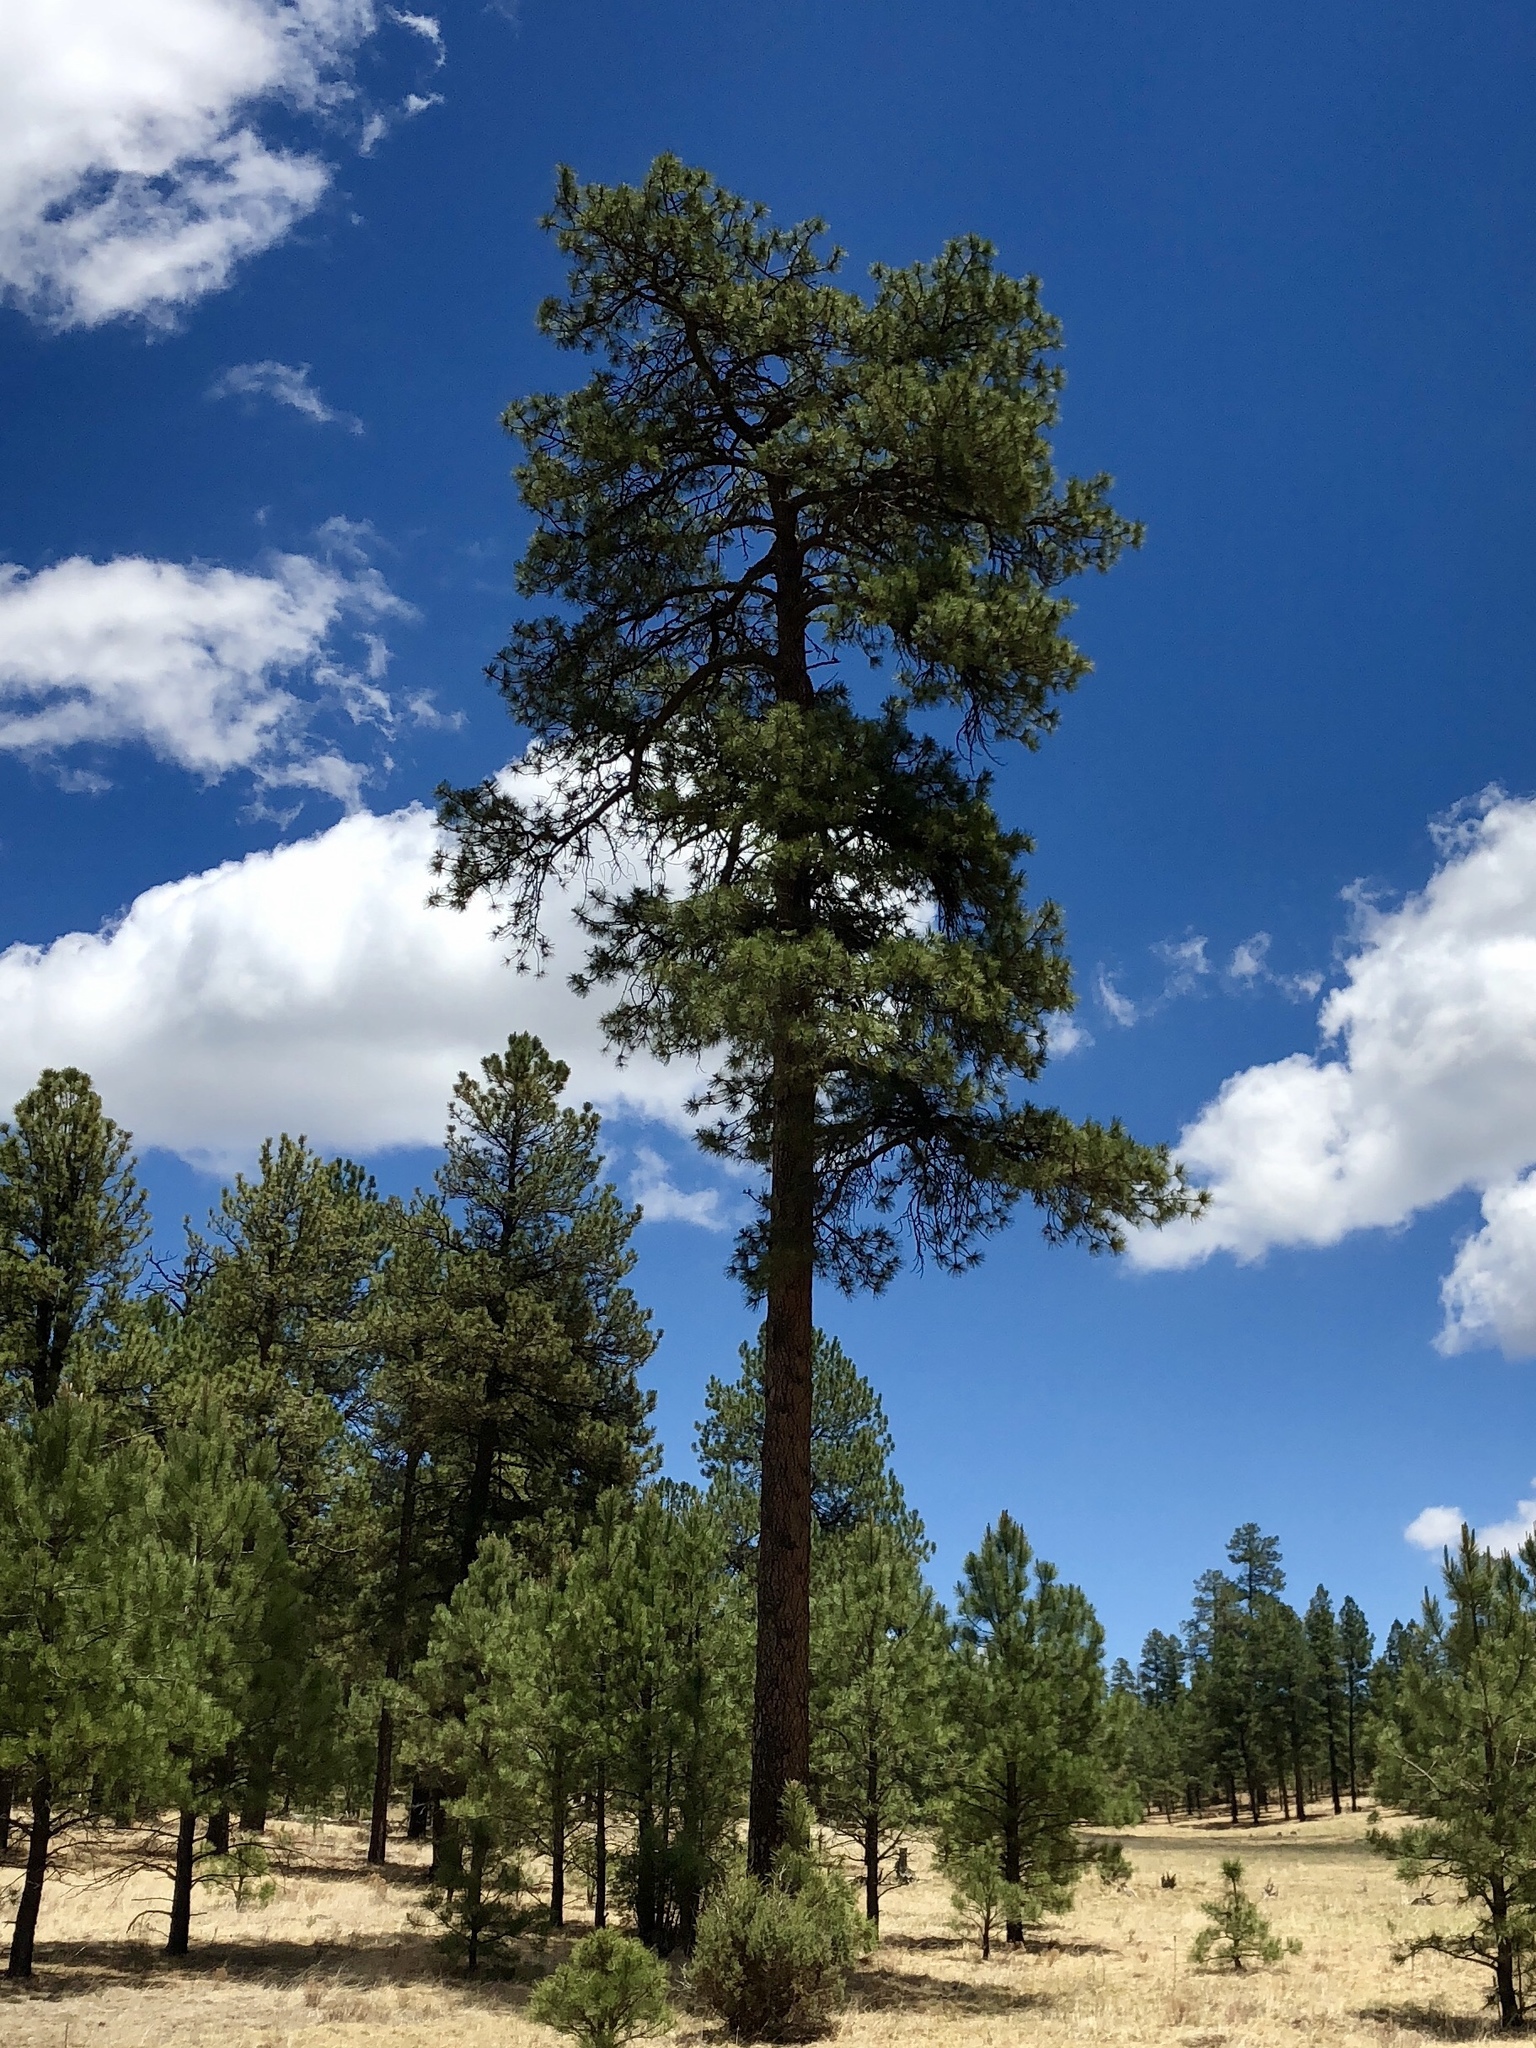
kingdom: Plantae
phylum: Tracheophyta
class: Pinopsida
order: Pinales
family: Pinaceae
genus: Pinus
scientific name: Pinus ponderosa
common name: Western yellow-pine
